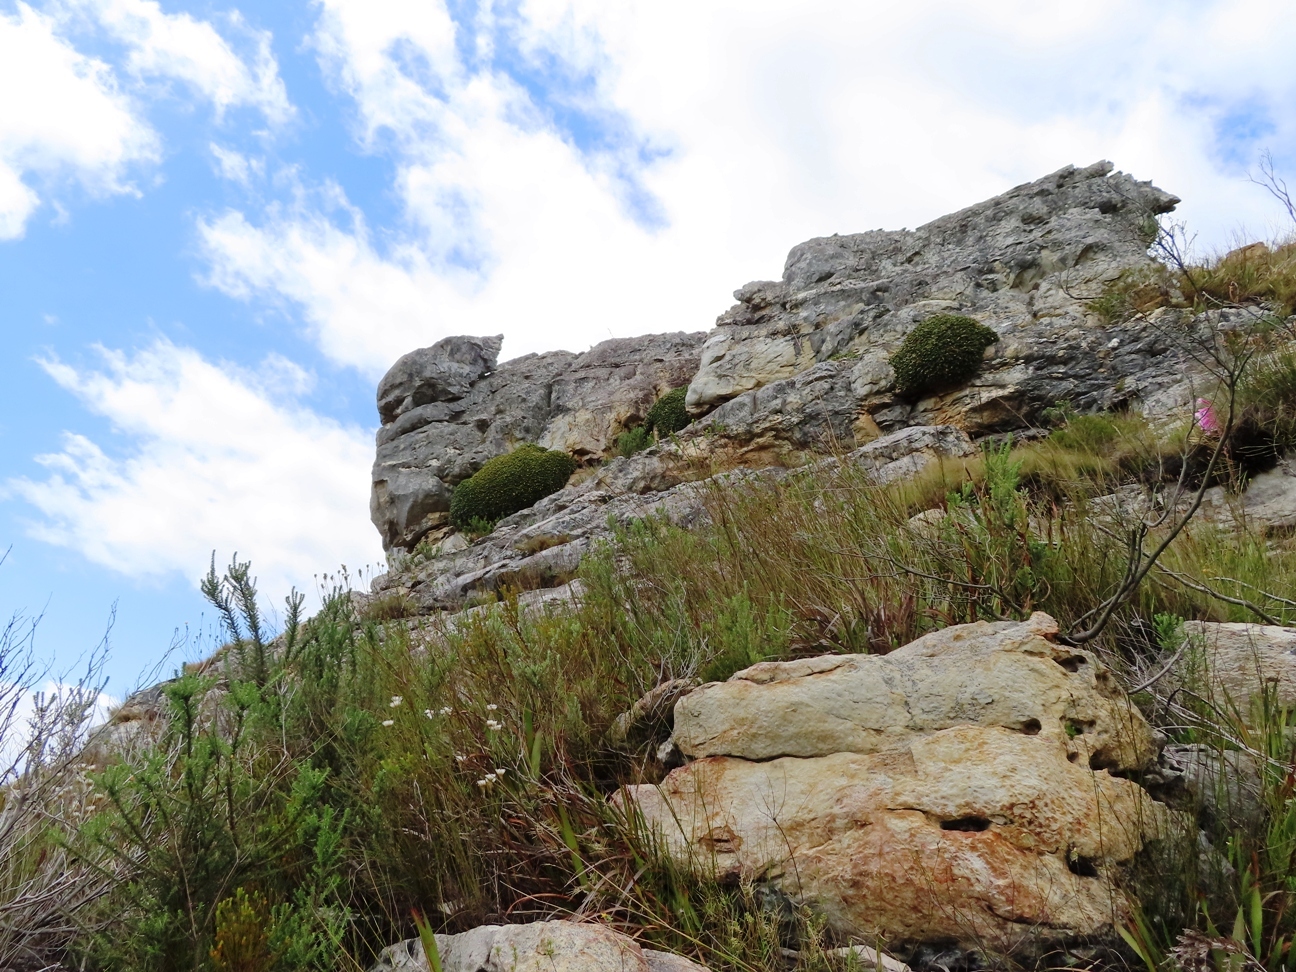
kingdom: Plantae
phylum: Tracheophyta
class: Magnoliopsida
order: Asterales
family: Asteraceae
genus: Oldenburgia
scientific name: Oldenburgia paradoxa
